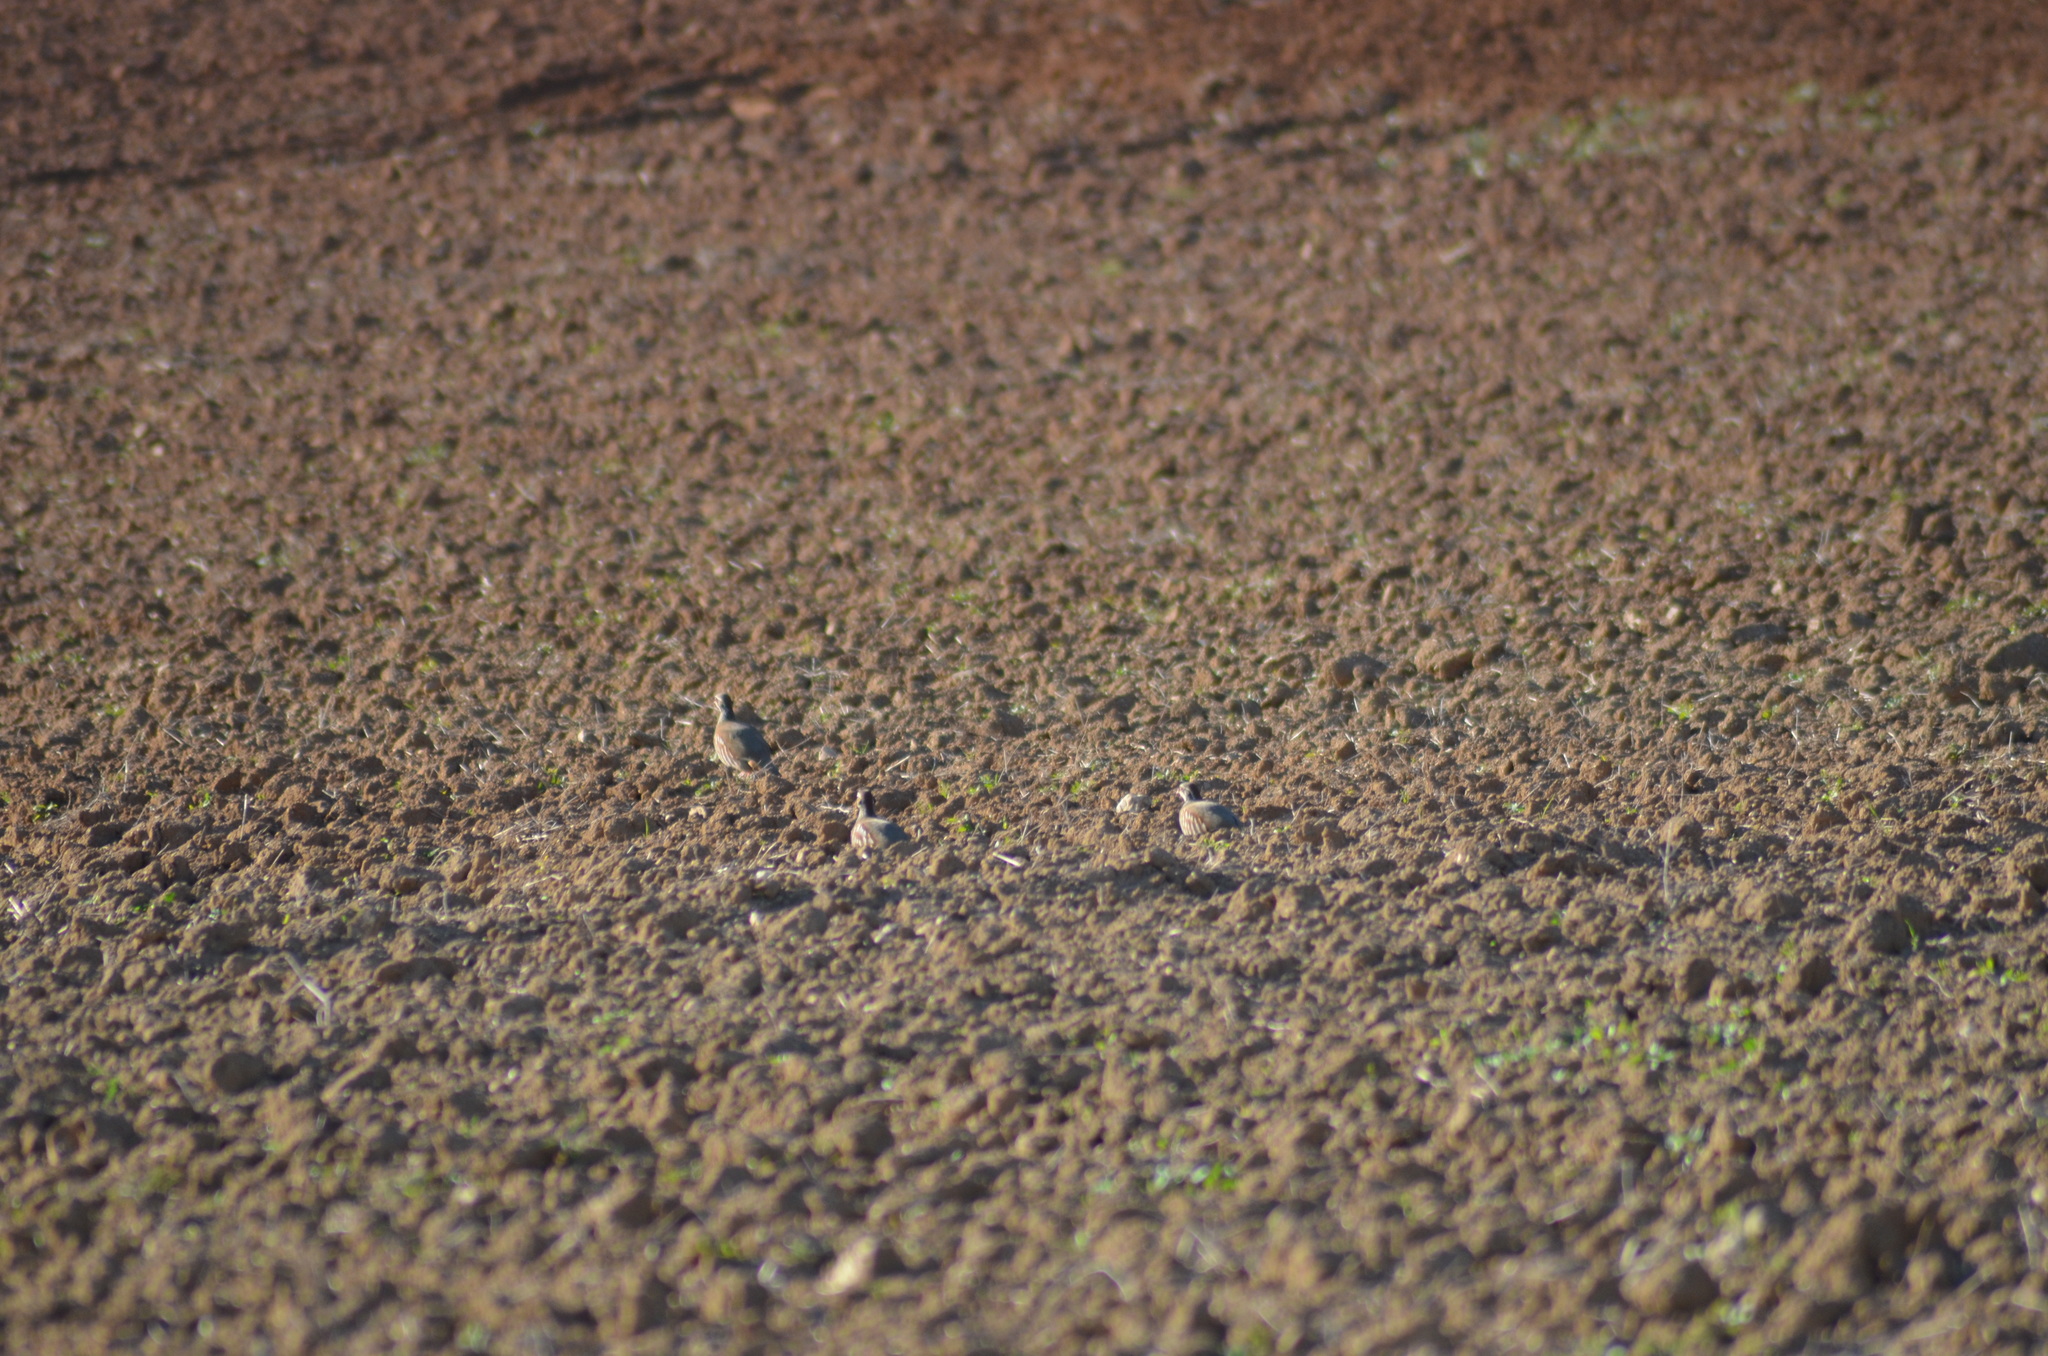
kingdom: Animalia
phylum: Chordata
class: Aves
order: Galliformes
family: Phasianidae
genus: Alectoris
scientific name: Alectoris rufa
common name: Red-legged partridge
